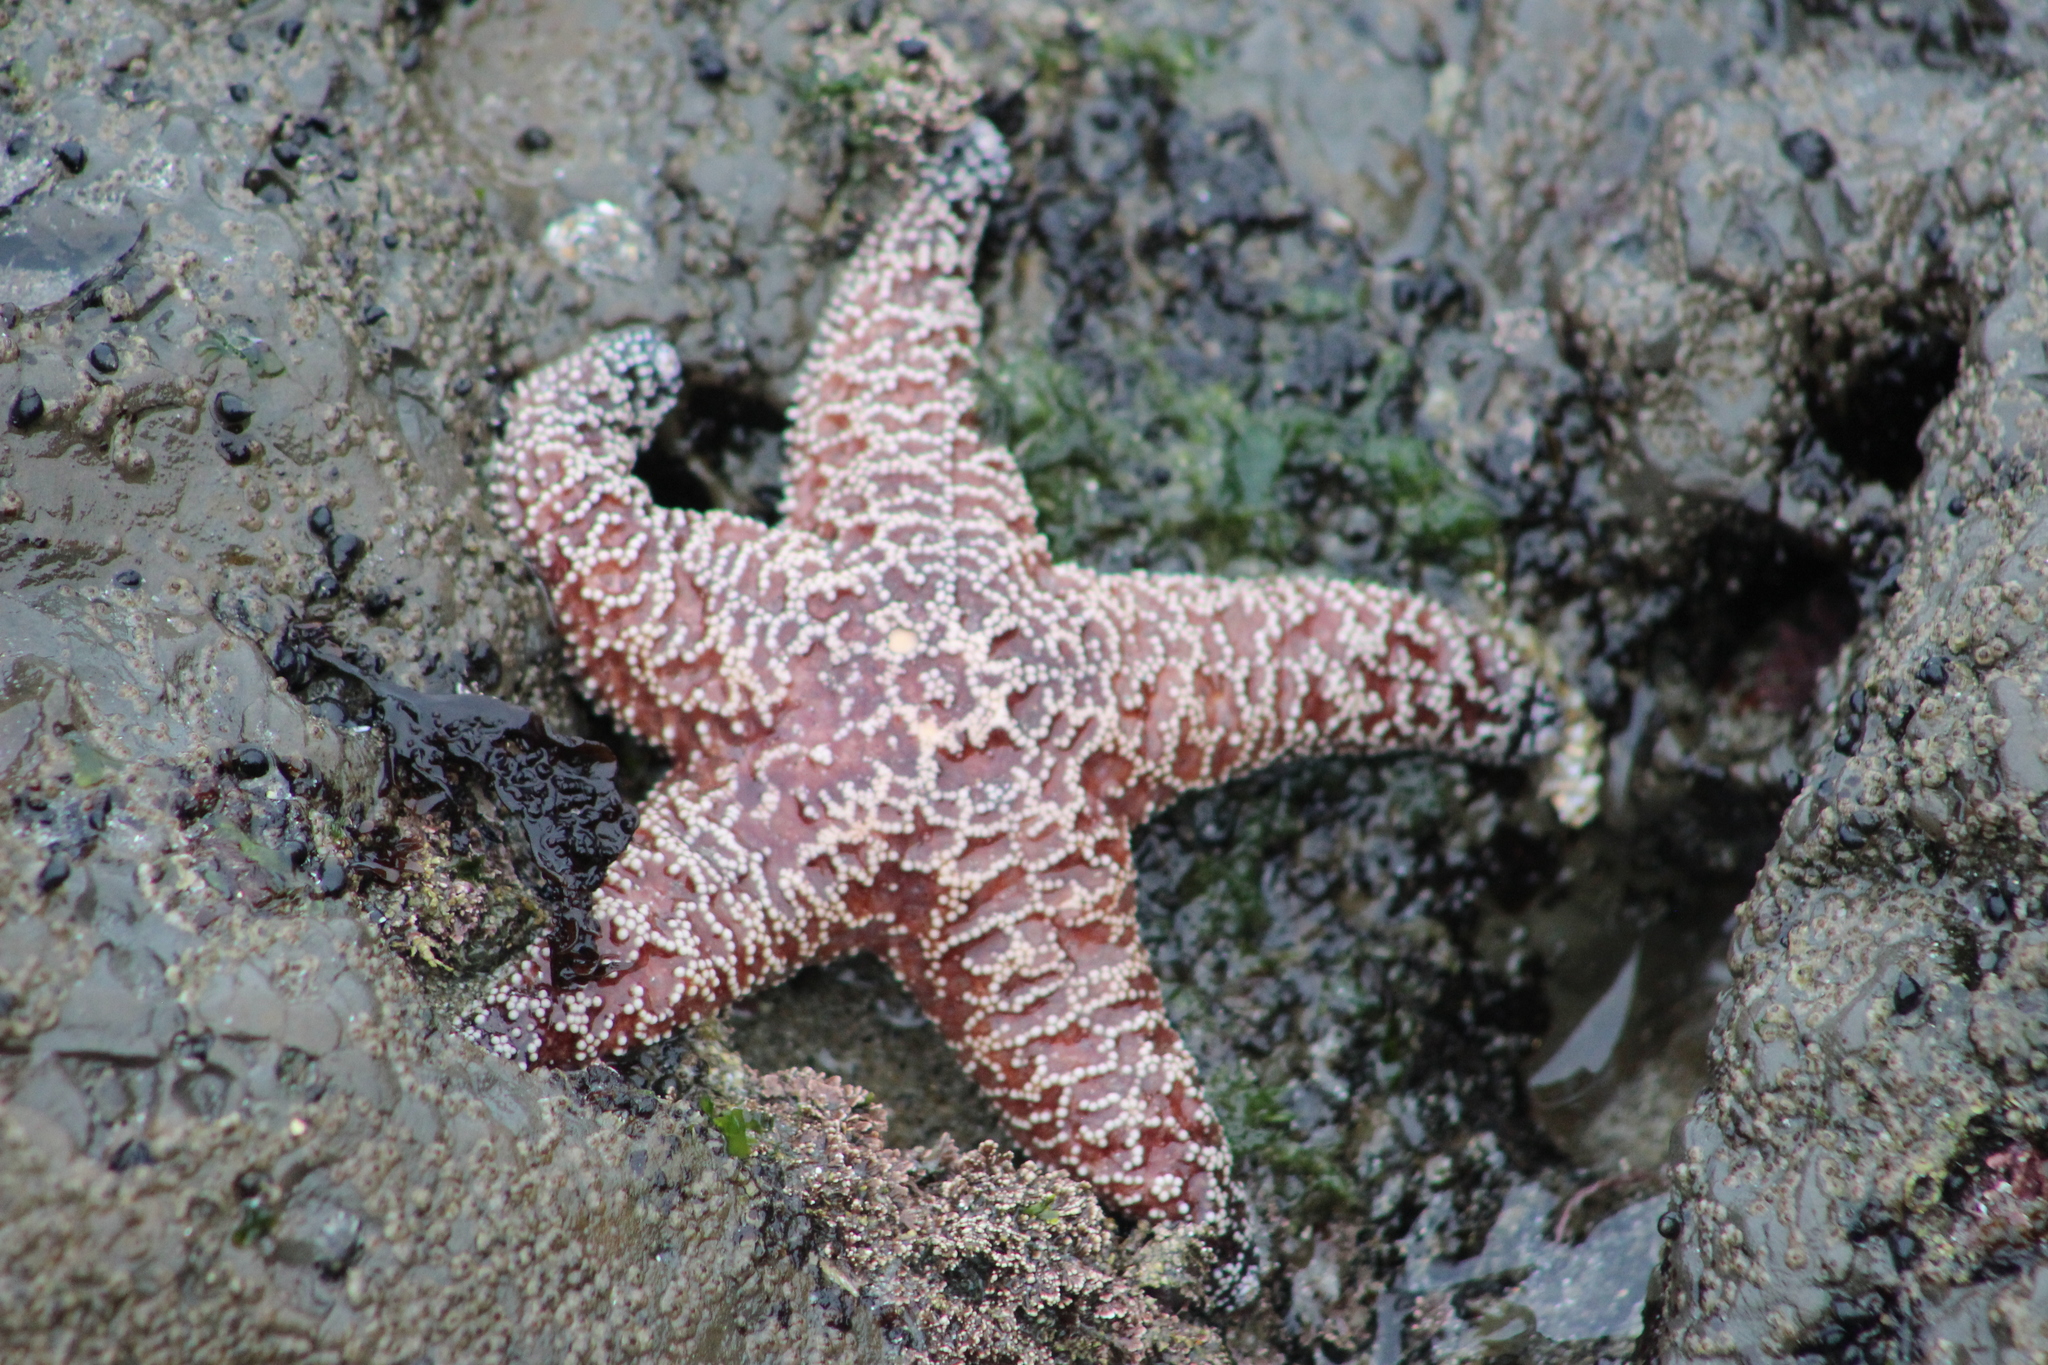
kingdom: Animalia
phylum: Echinodermata
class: Asteroidea
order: Forcipulatida
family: Asteriidae
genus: Pisaster
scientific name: Pisaster ochraceus
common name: Ochre stars
